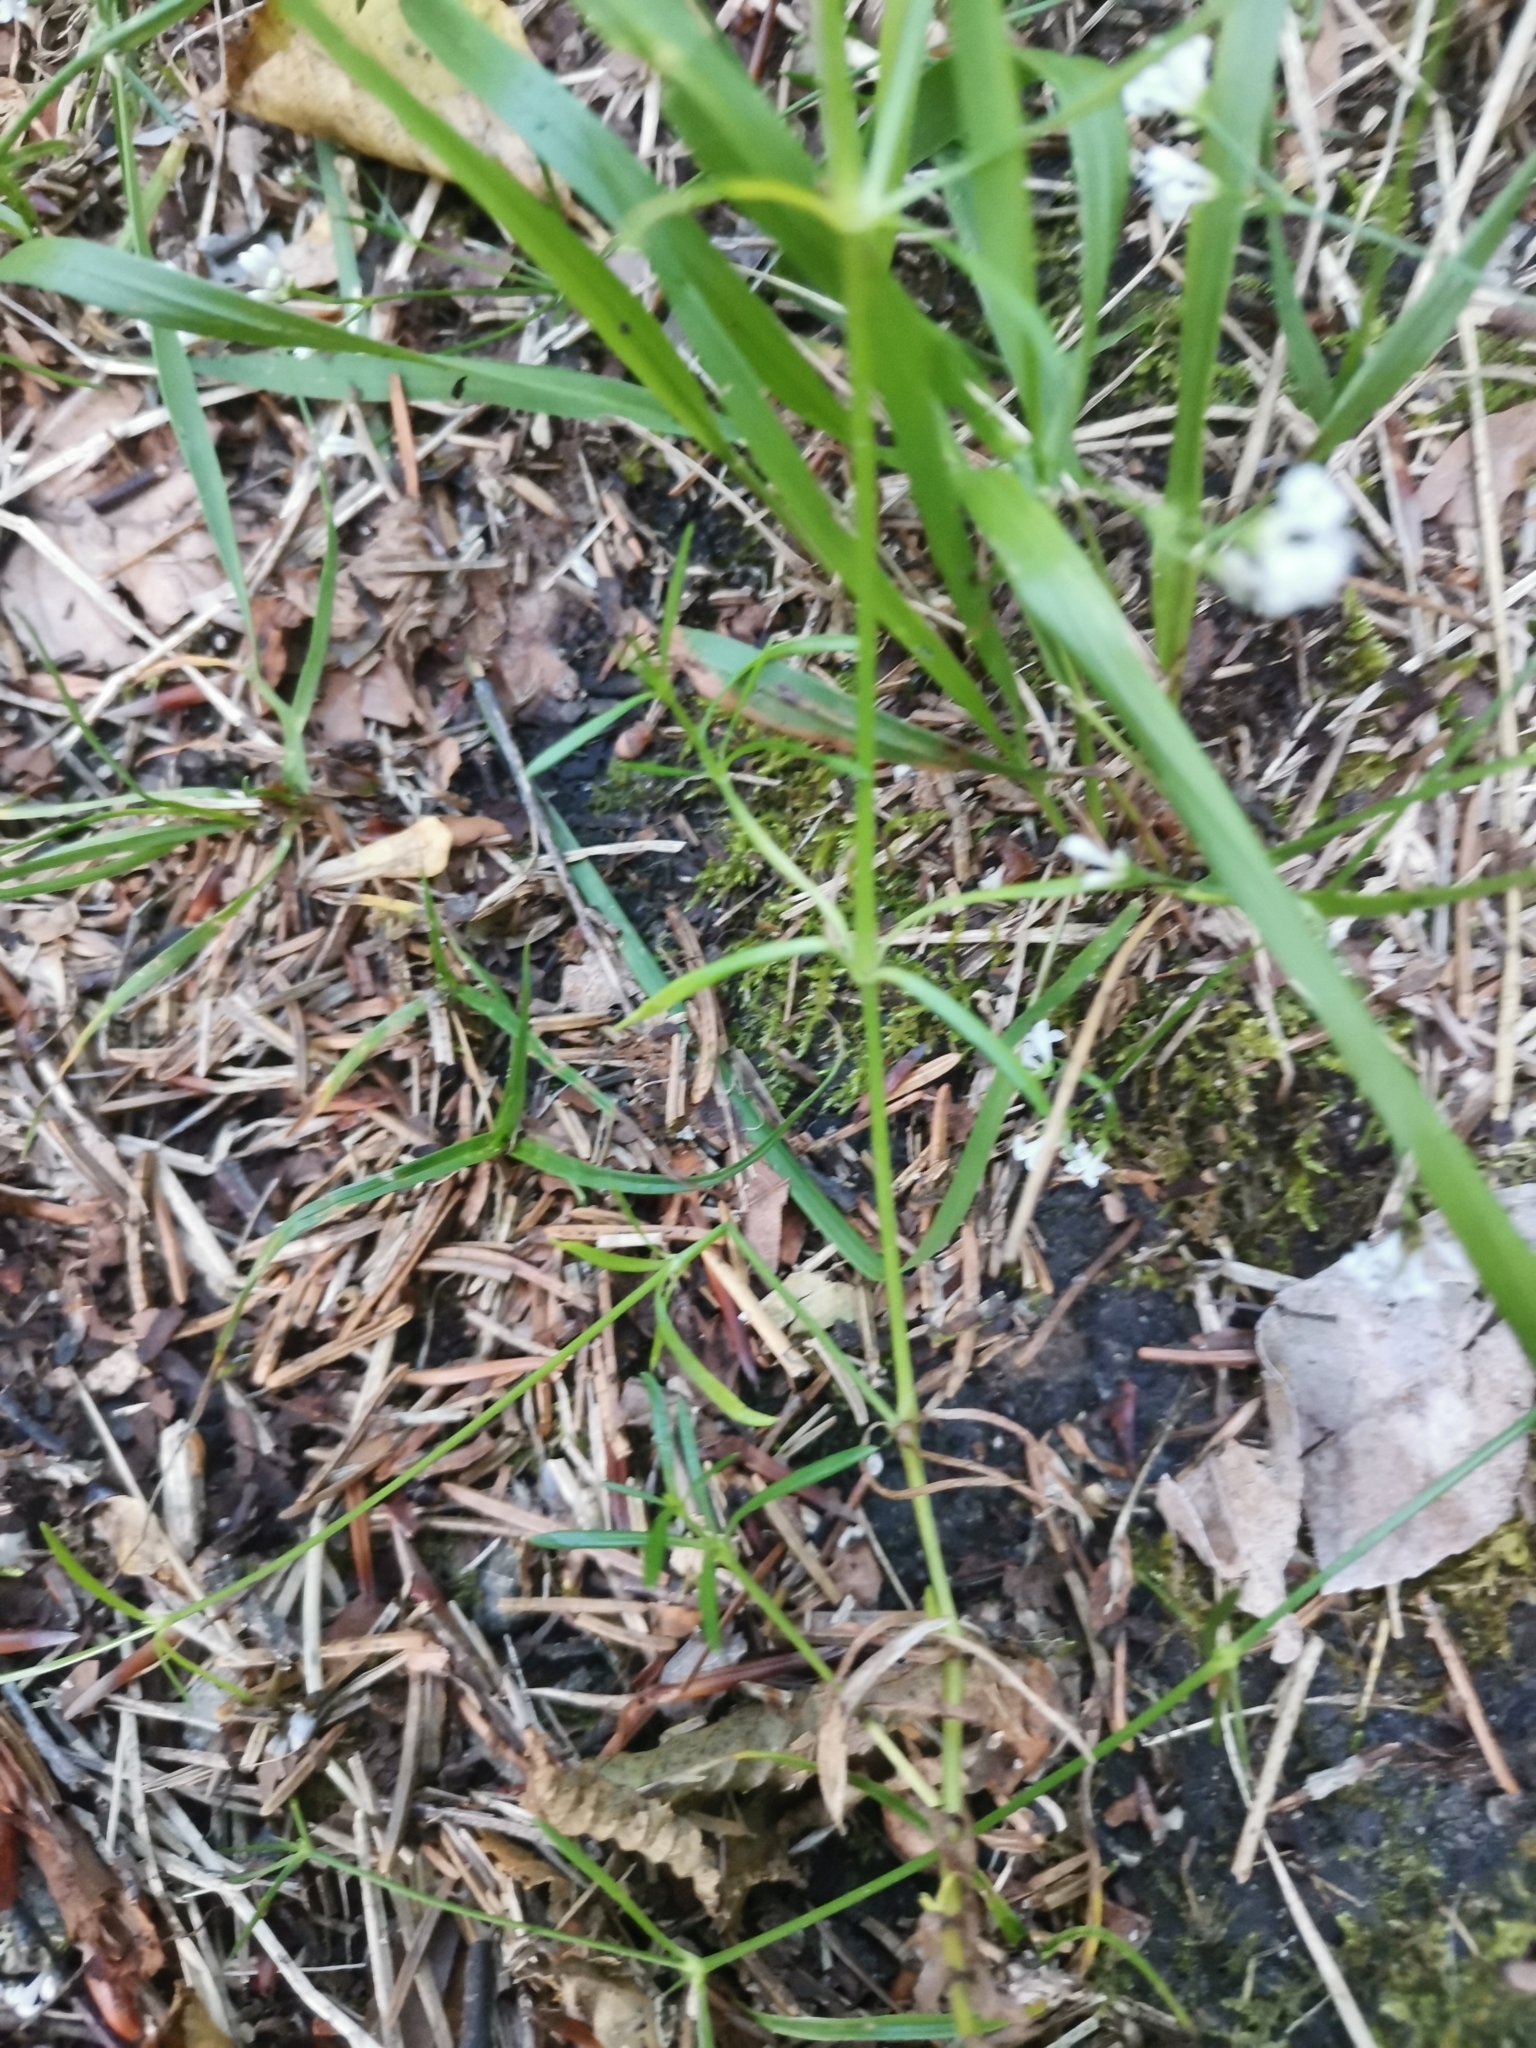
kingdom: Plantae
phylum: Tracheophyta
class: Magnoliopsida
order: Gentianales
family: Rubiaceae
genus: Cynanchica
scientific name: Cynanchica pyrenaica
